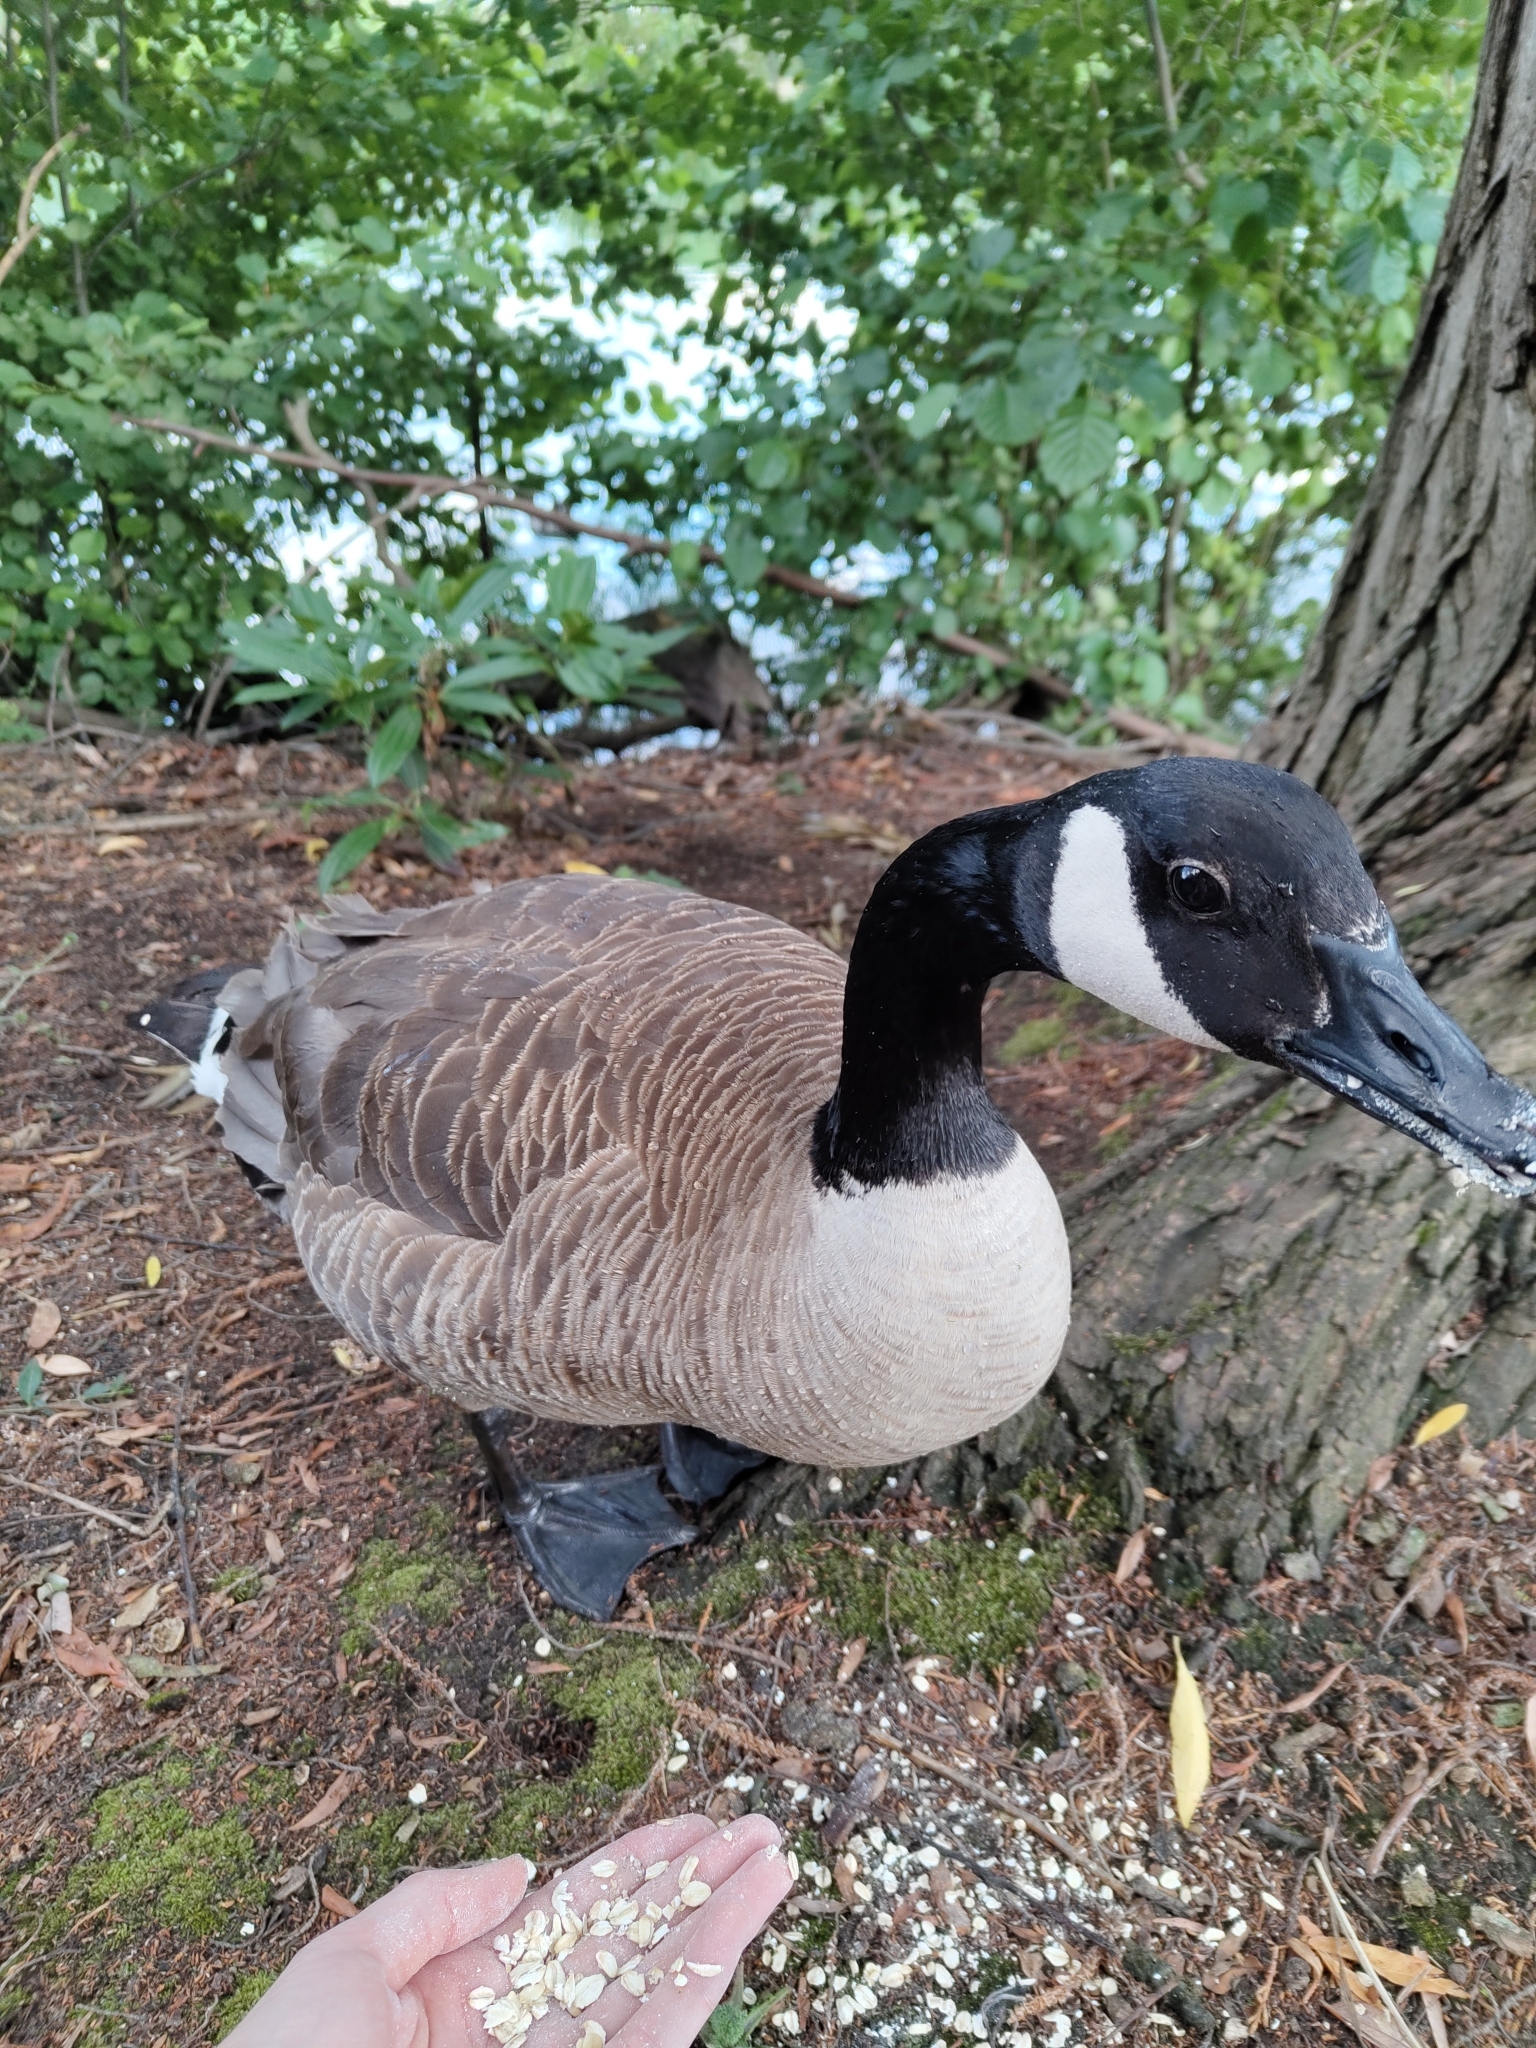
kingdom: Animalia
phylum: Chordata
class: Aves
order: Anseriformes
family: Anatidae
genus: Branta
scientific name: Branta canadensis
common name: Canada goose
